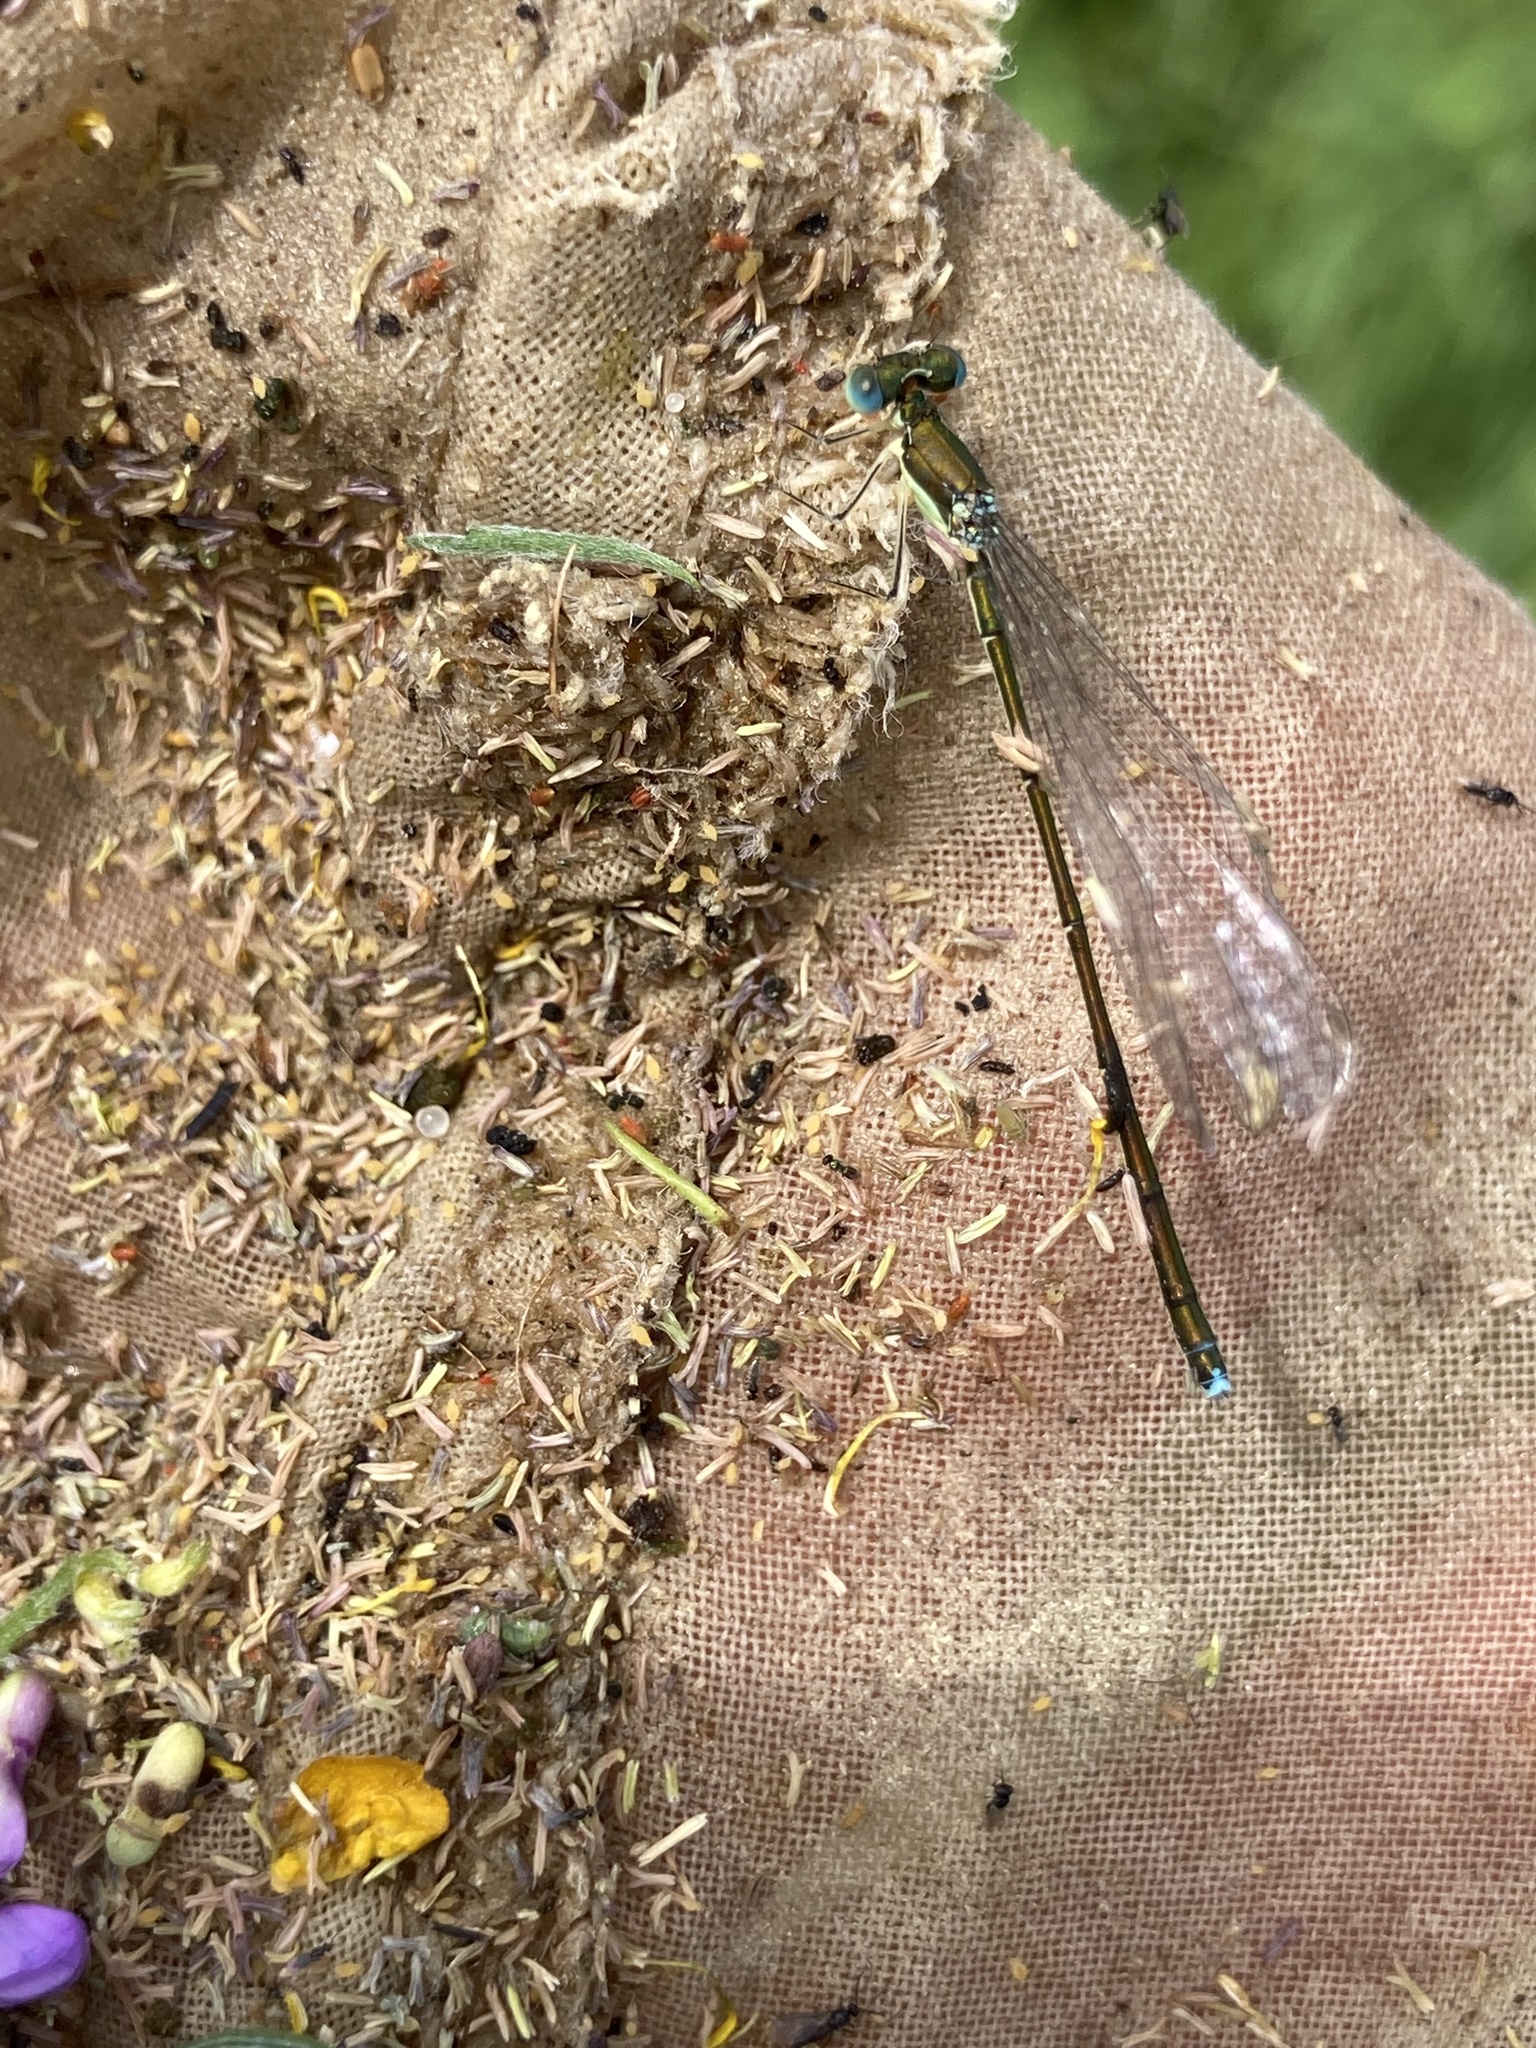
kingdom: Animalia
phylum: Arthropoda
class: Insecta
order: Odonata
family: Coenagrionidae
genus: Nehalennia
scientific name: Nehalennia irene
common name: Sedge sprite
